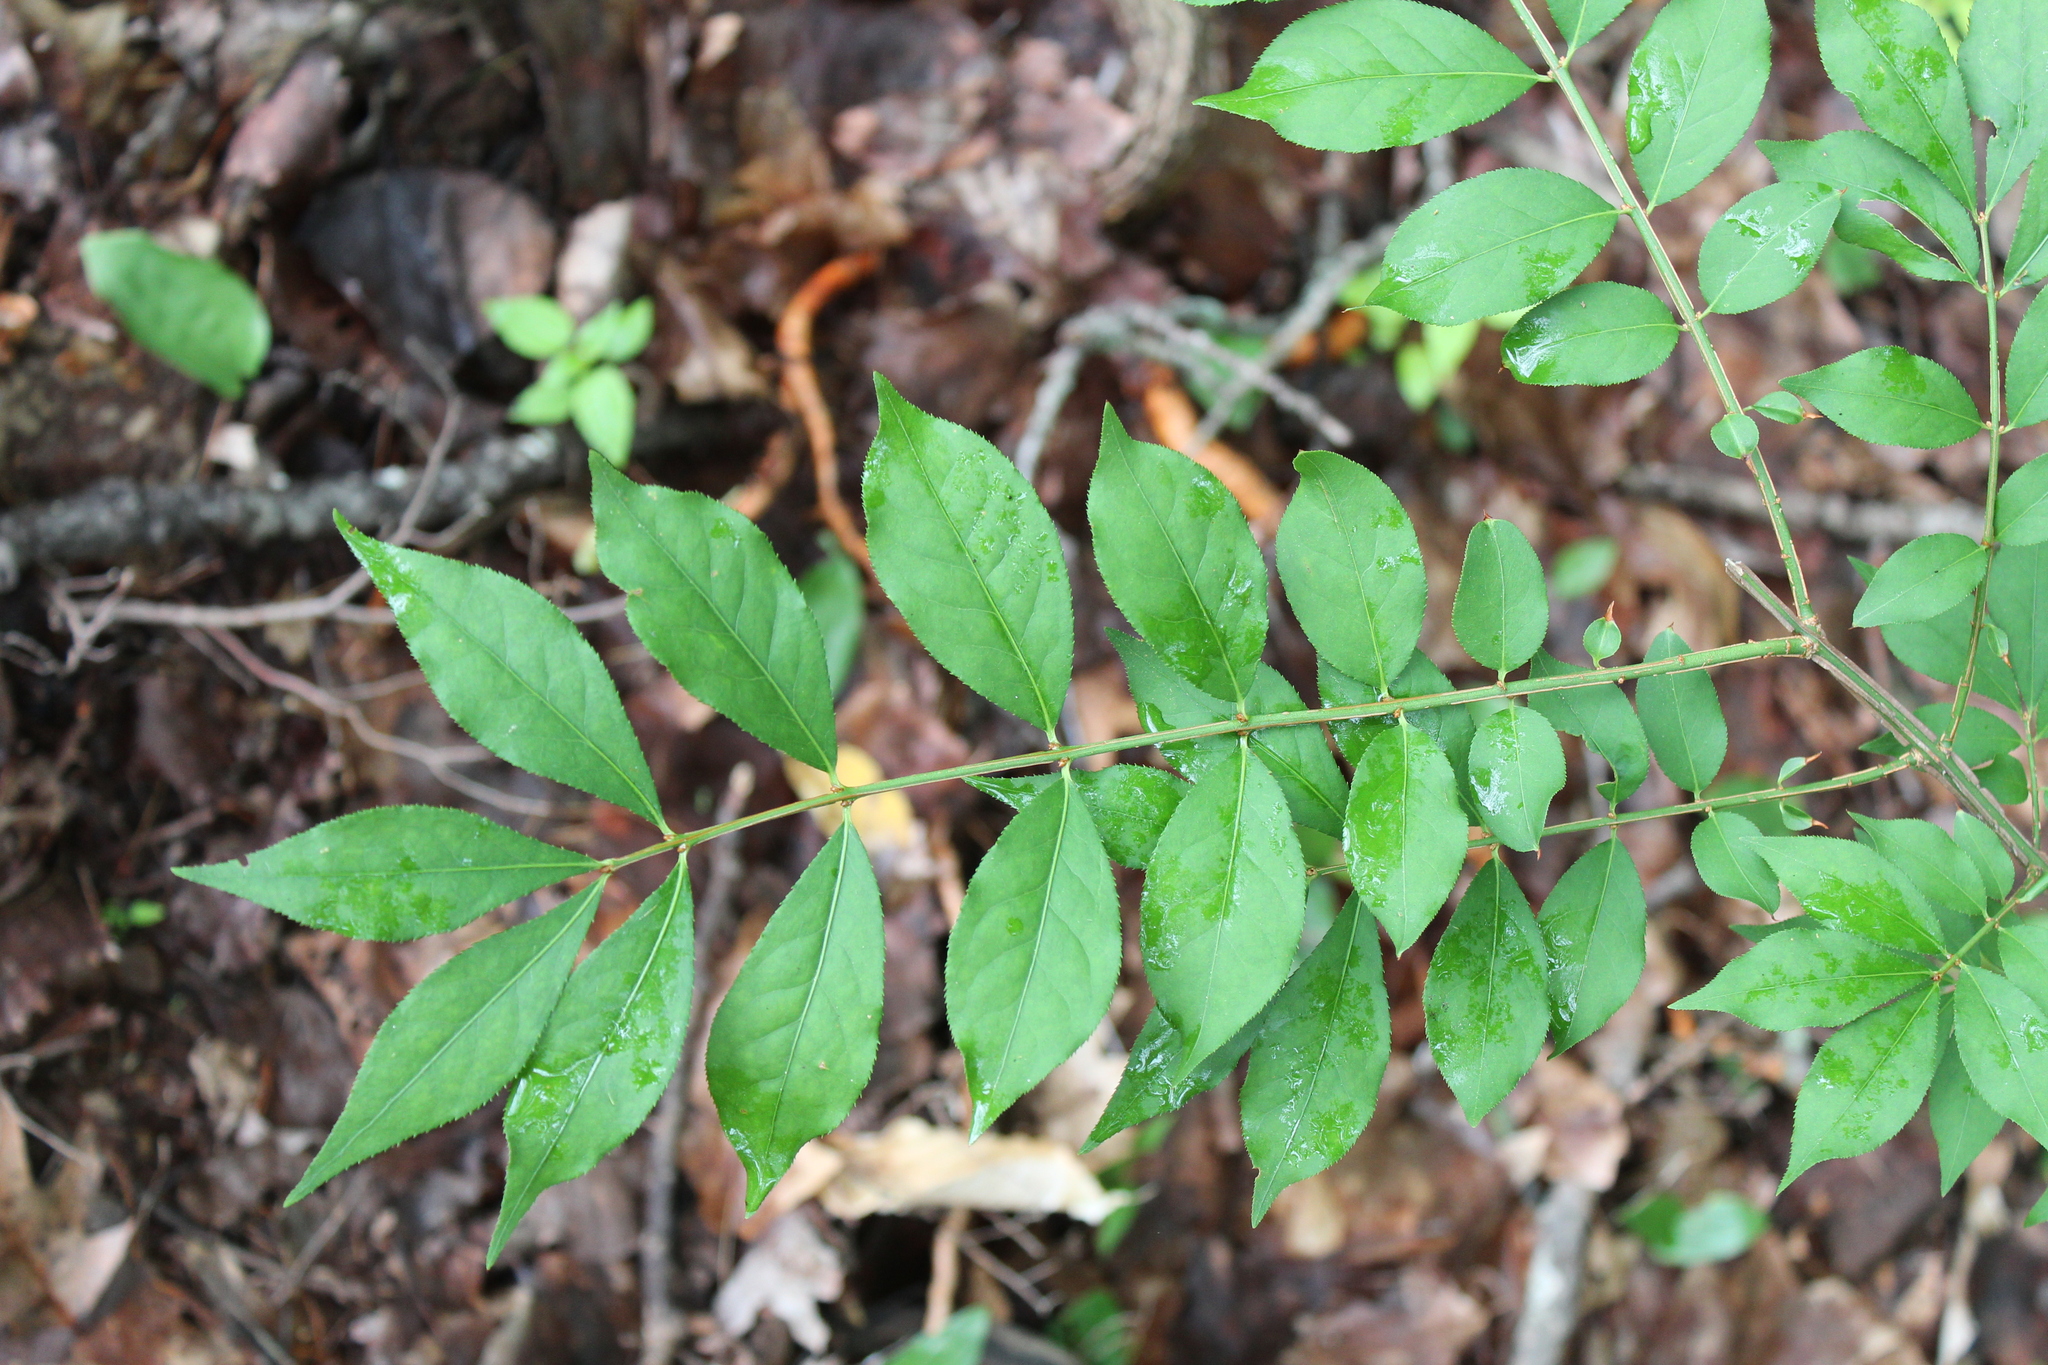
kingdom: Plantae
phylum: Tracheophyta
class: Magnoliopsida
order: Celastrales
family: Celastraceae
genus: Euonymus
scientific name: Euonymus alatus
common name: Winged euonymus
